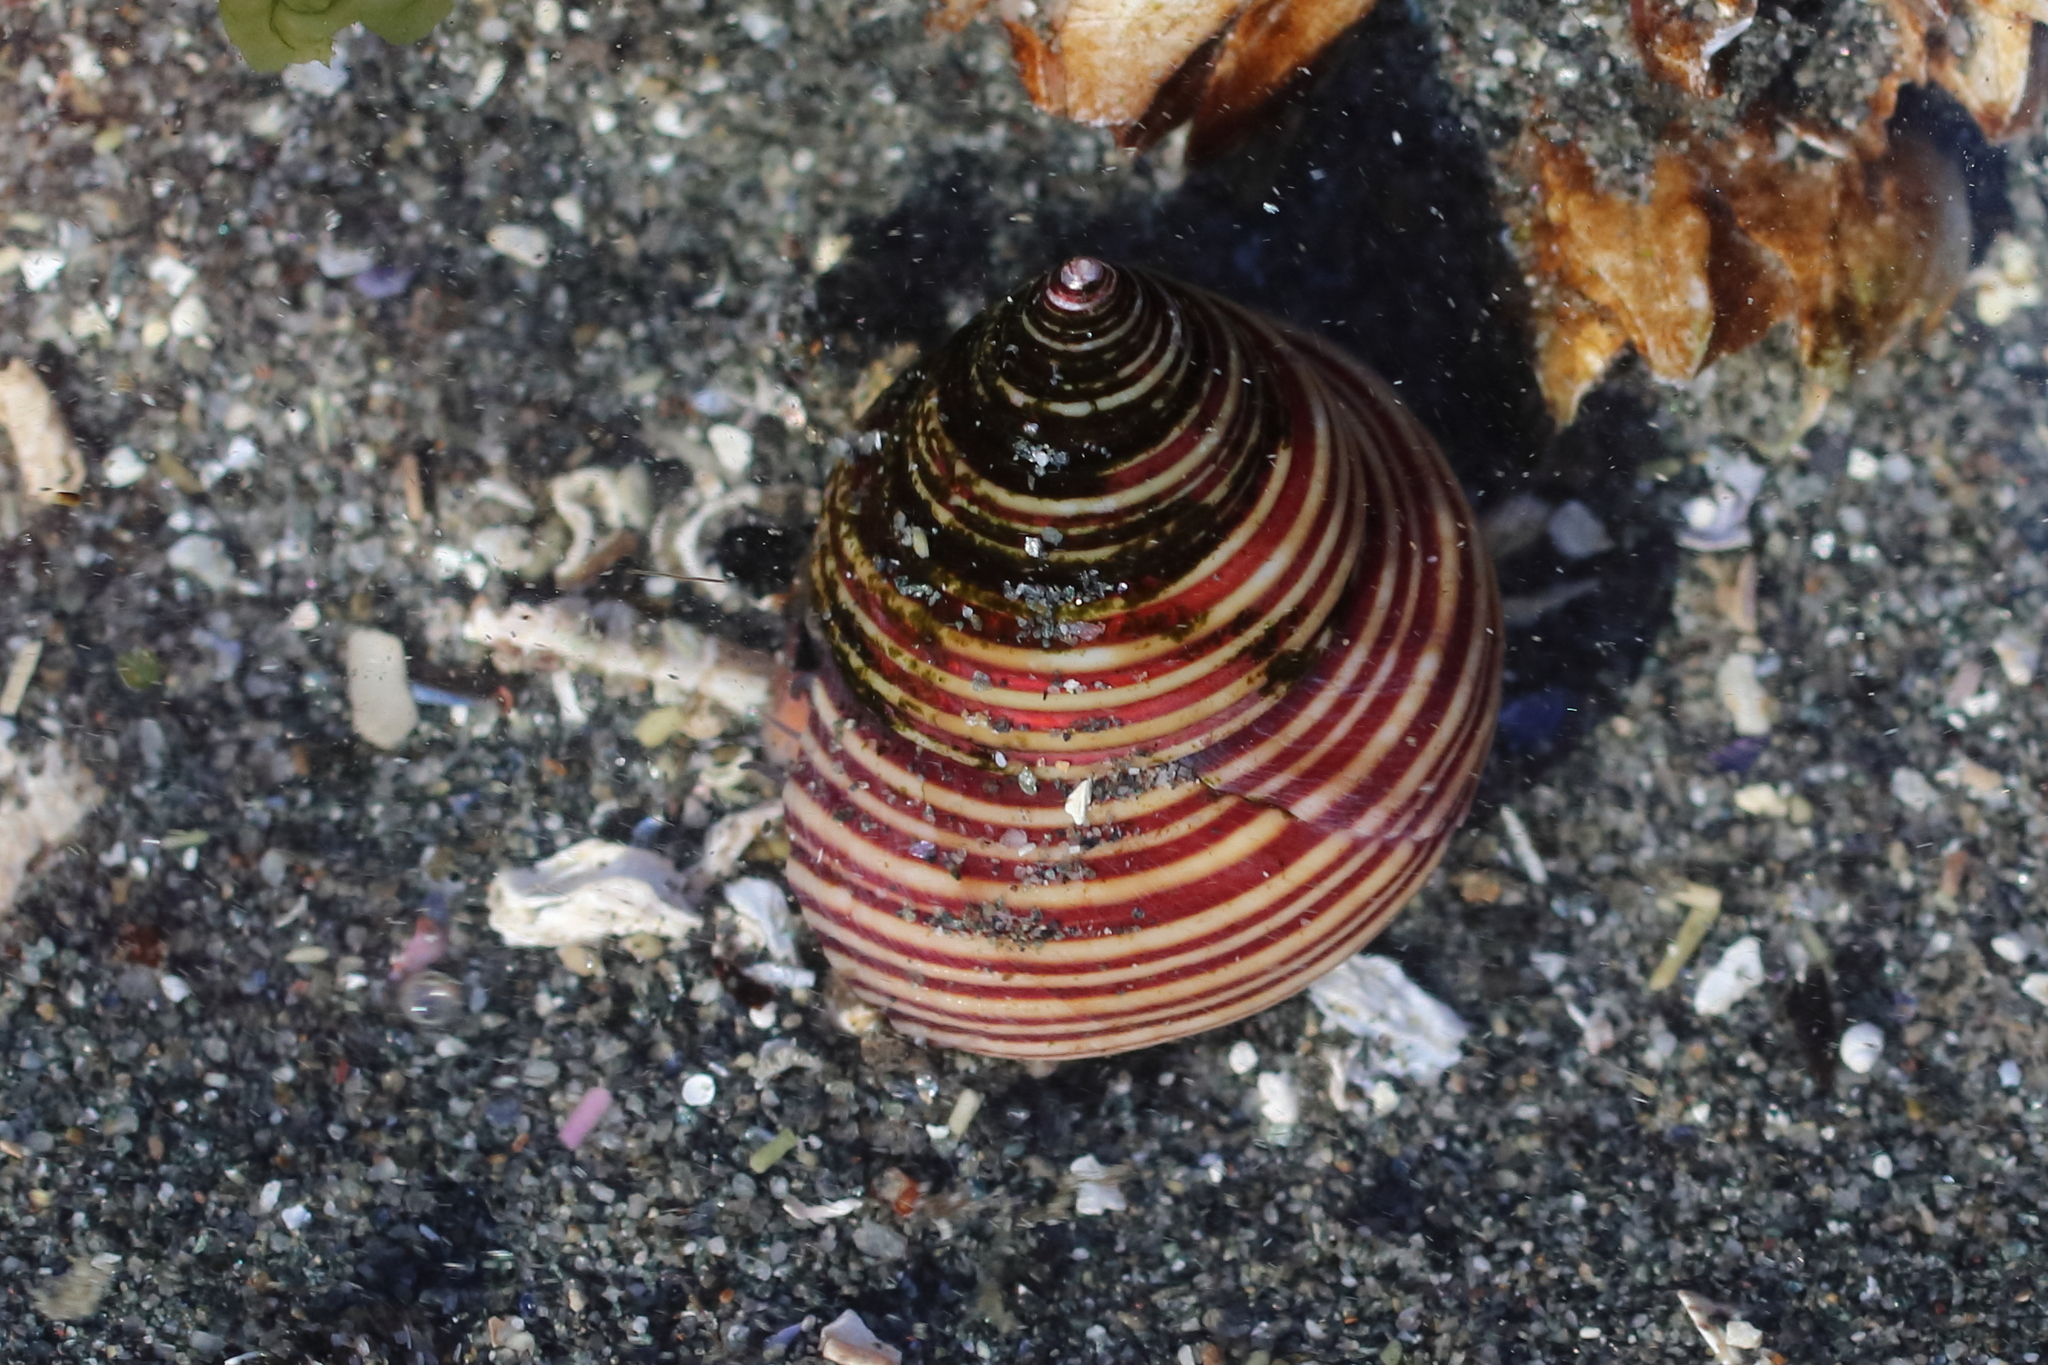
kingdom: Animalia
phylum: Mollusca
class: Gastropoda
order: Trochida
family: Calliostomatidae
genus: Calliostoma
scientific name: Calliostoma ligatum
